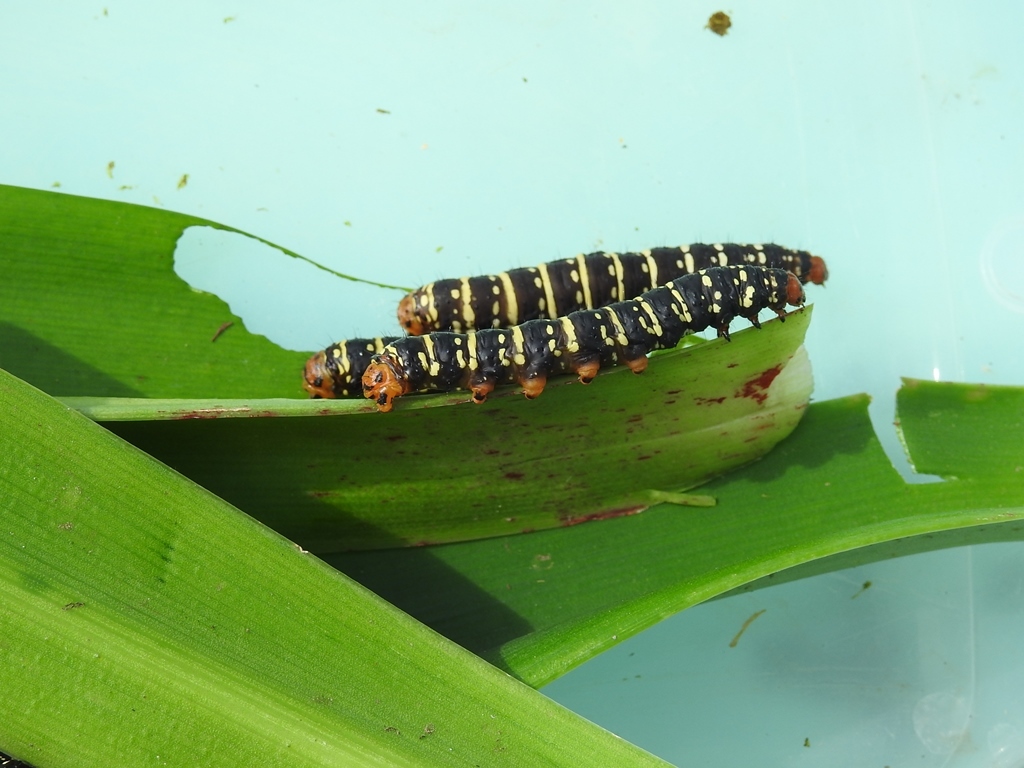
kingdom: Animalia
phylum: Arthropoda
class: Insecta
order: Lepidoptera
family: Noctuidae
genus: Xanthopastis
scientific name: Xanthopastis moctezuma
